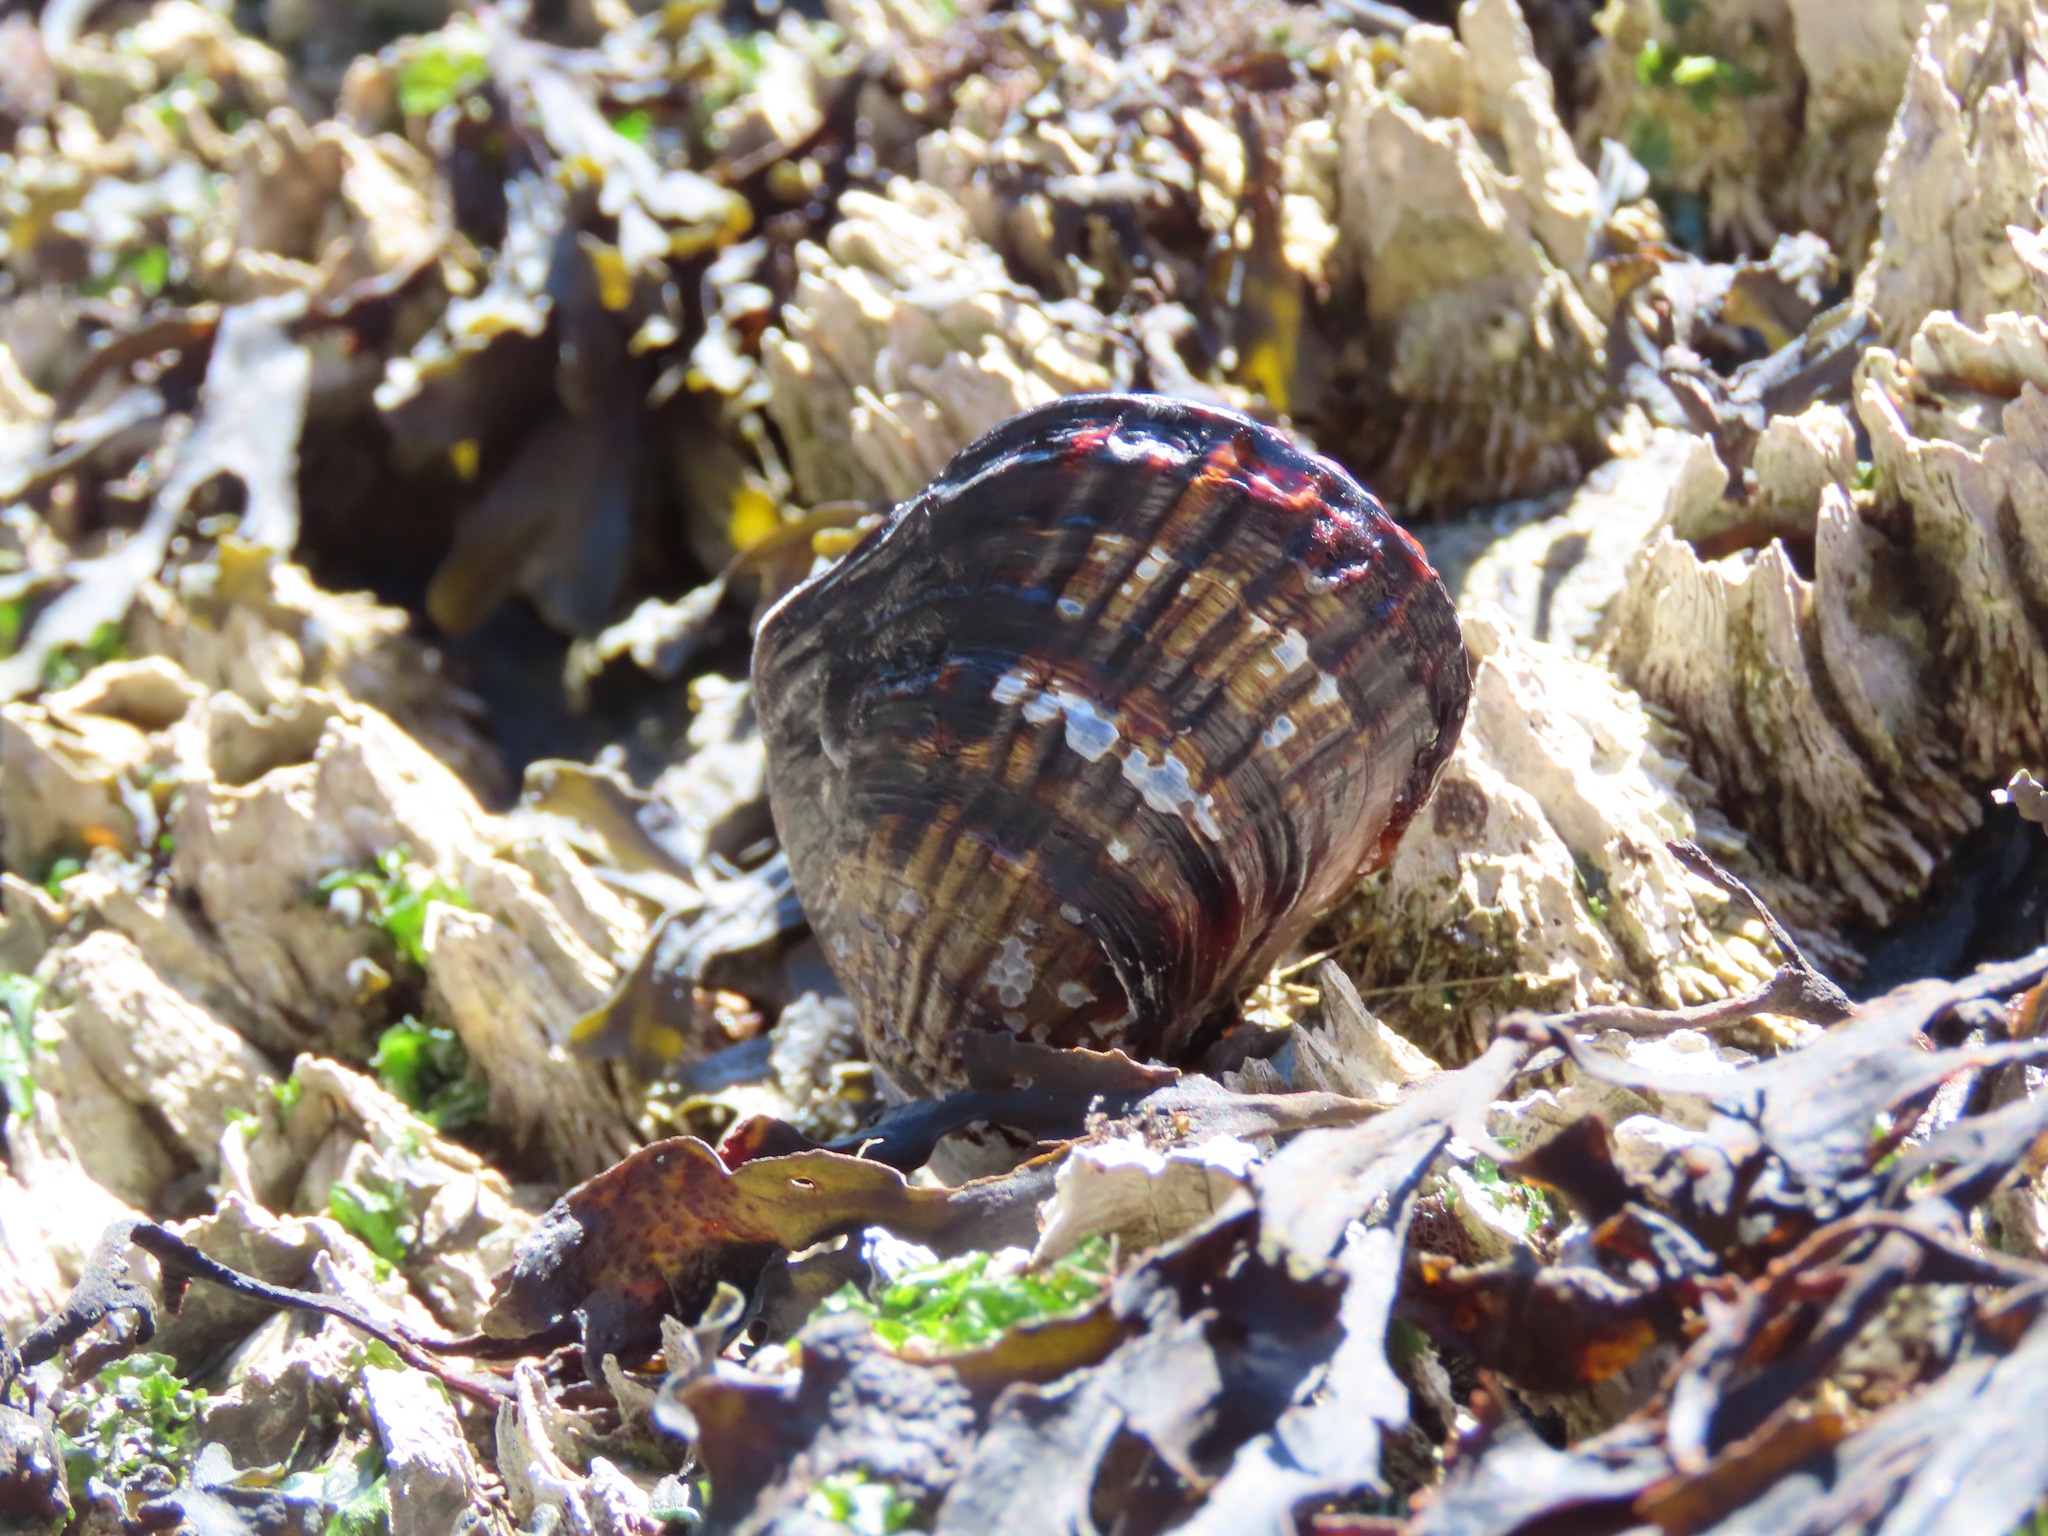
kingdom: Animalia
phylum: Mollusca
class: Bivalvia
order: Mytilida
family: Mytilidae
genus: Mytilus
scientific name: Mytilus californianus
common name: California mussel
